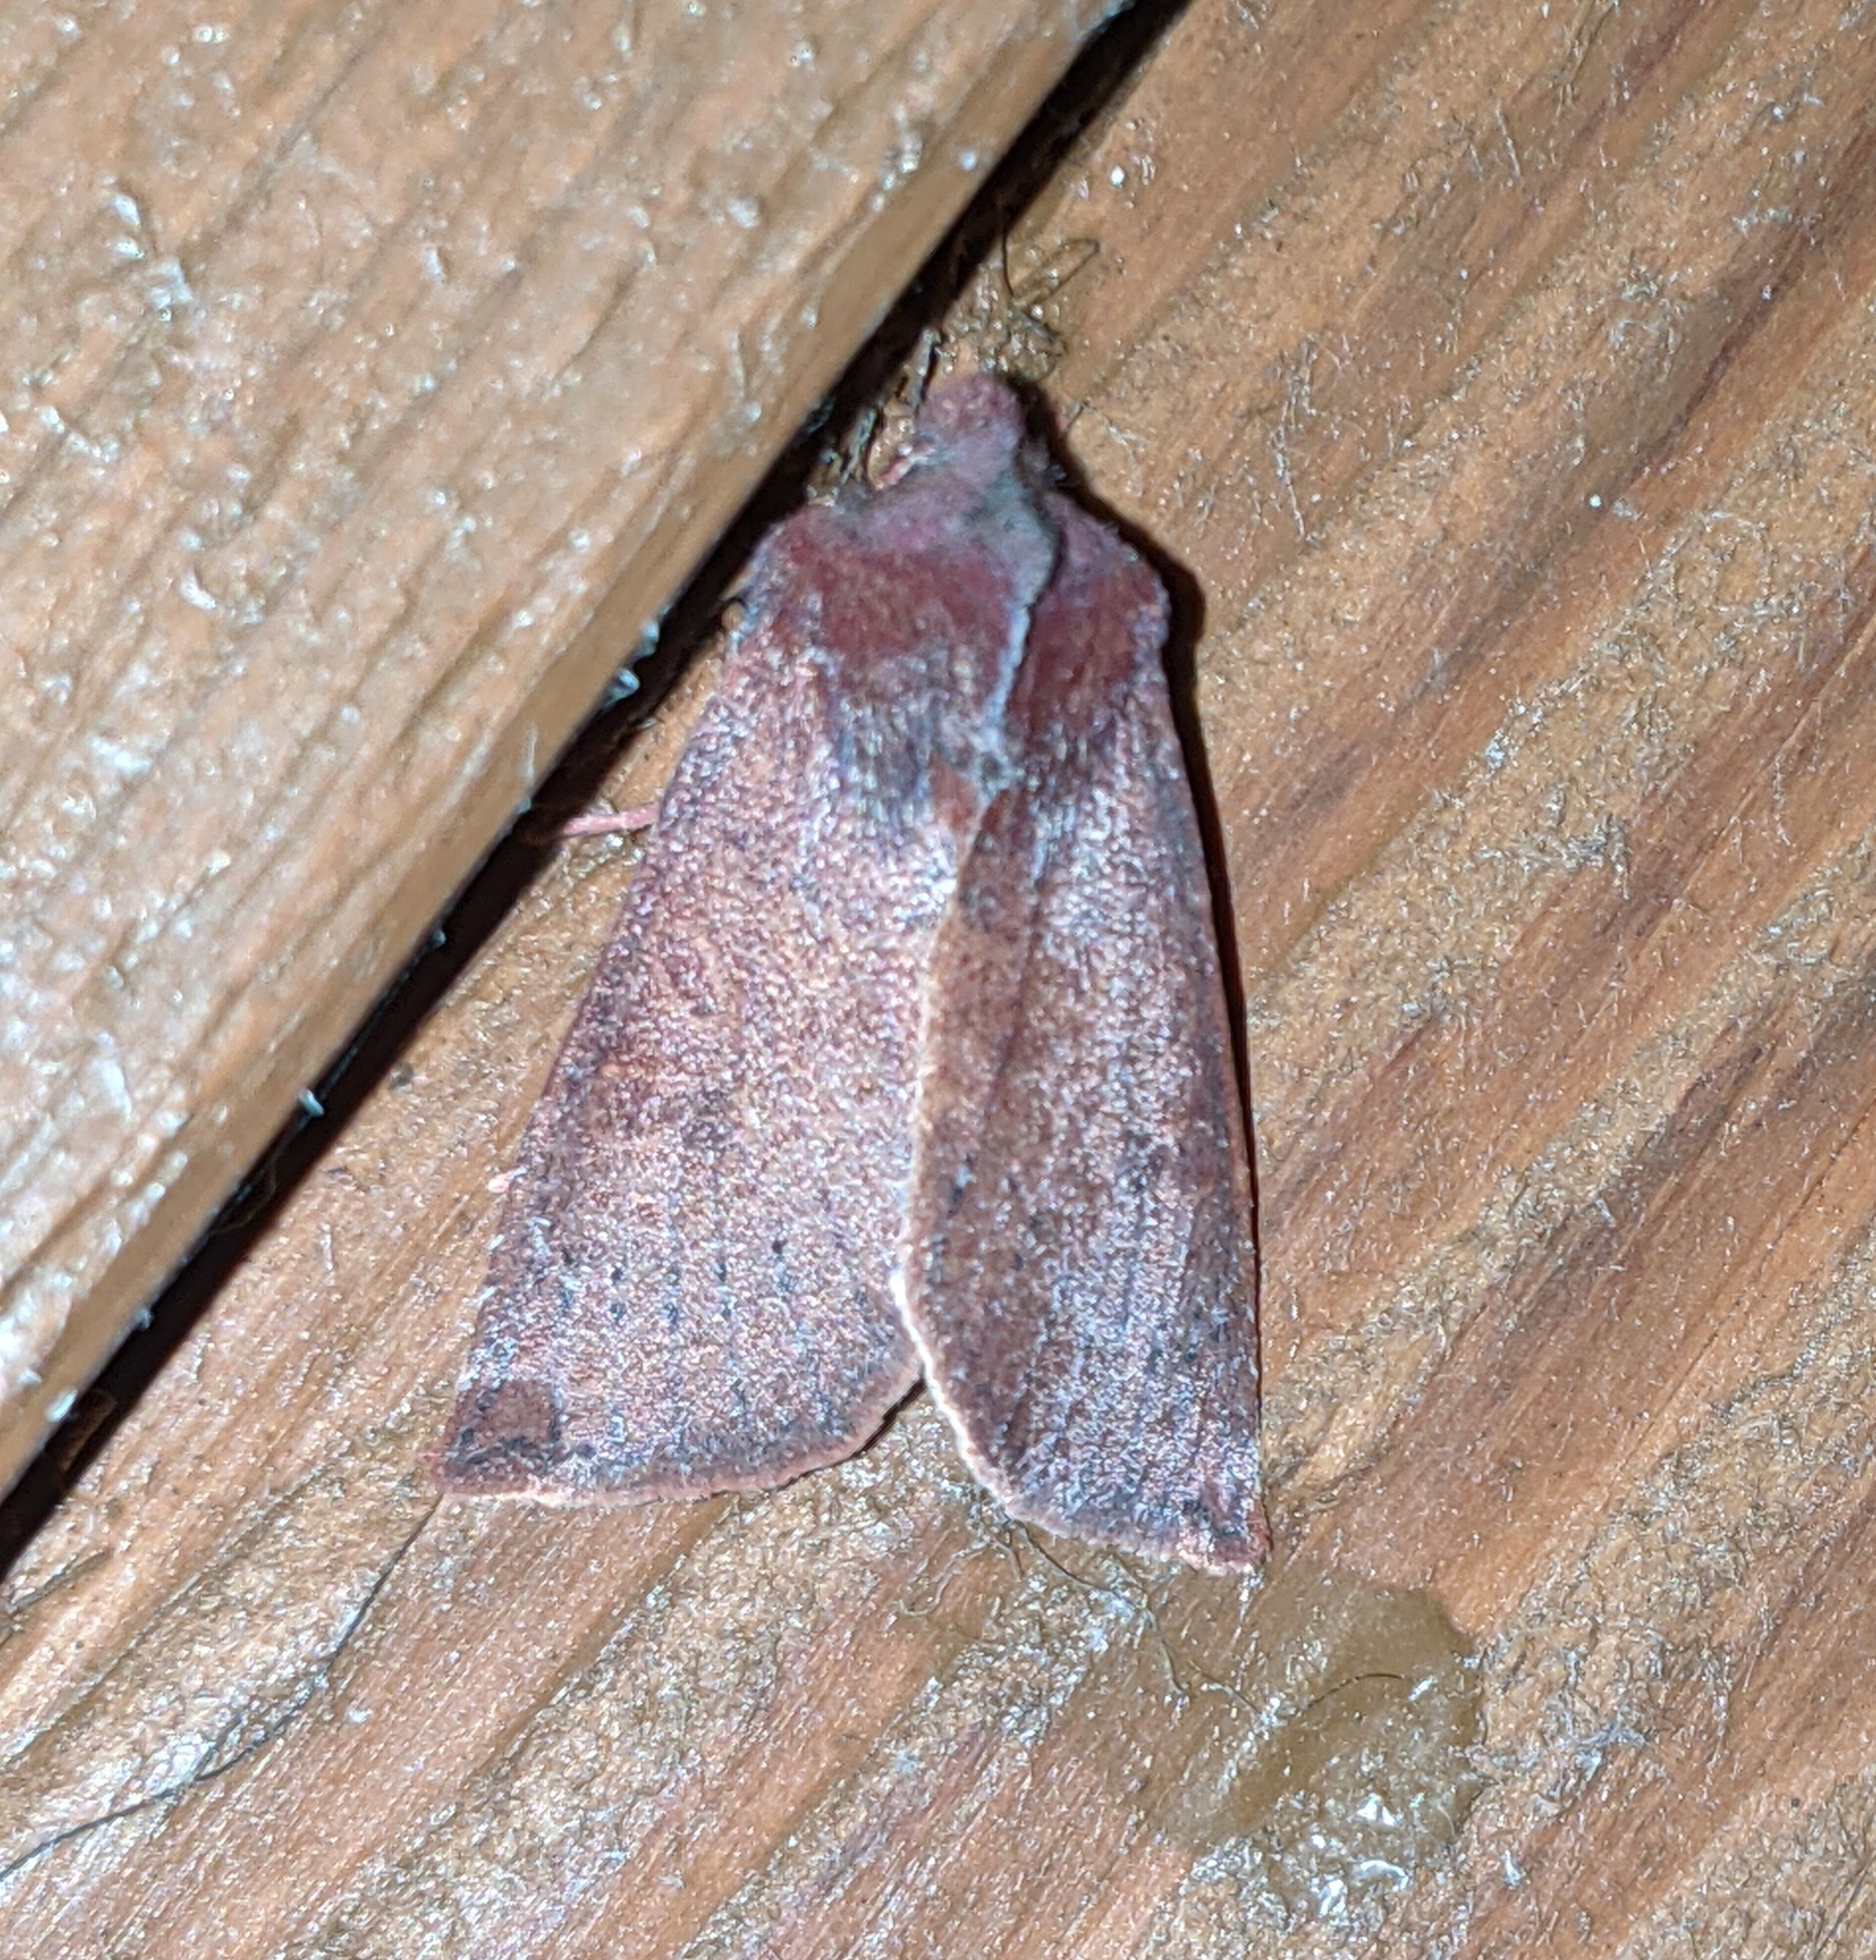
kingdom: Animalia
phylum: Arthropoda
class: Insecta
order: Lepidoptera
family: Noctuidae
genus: Orthosia
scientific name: Orthosia transparens
